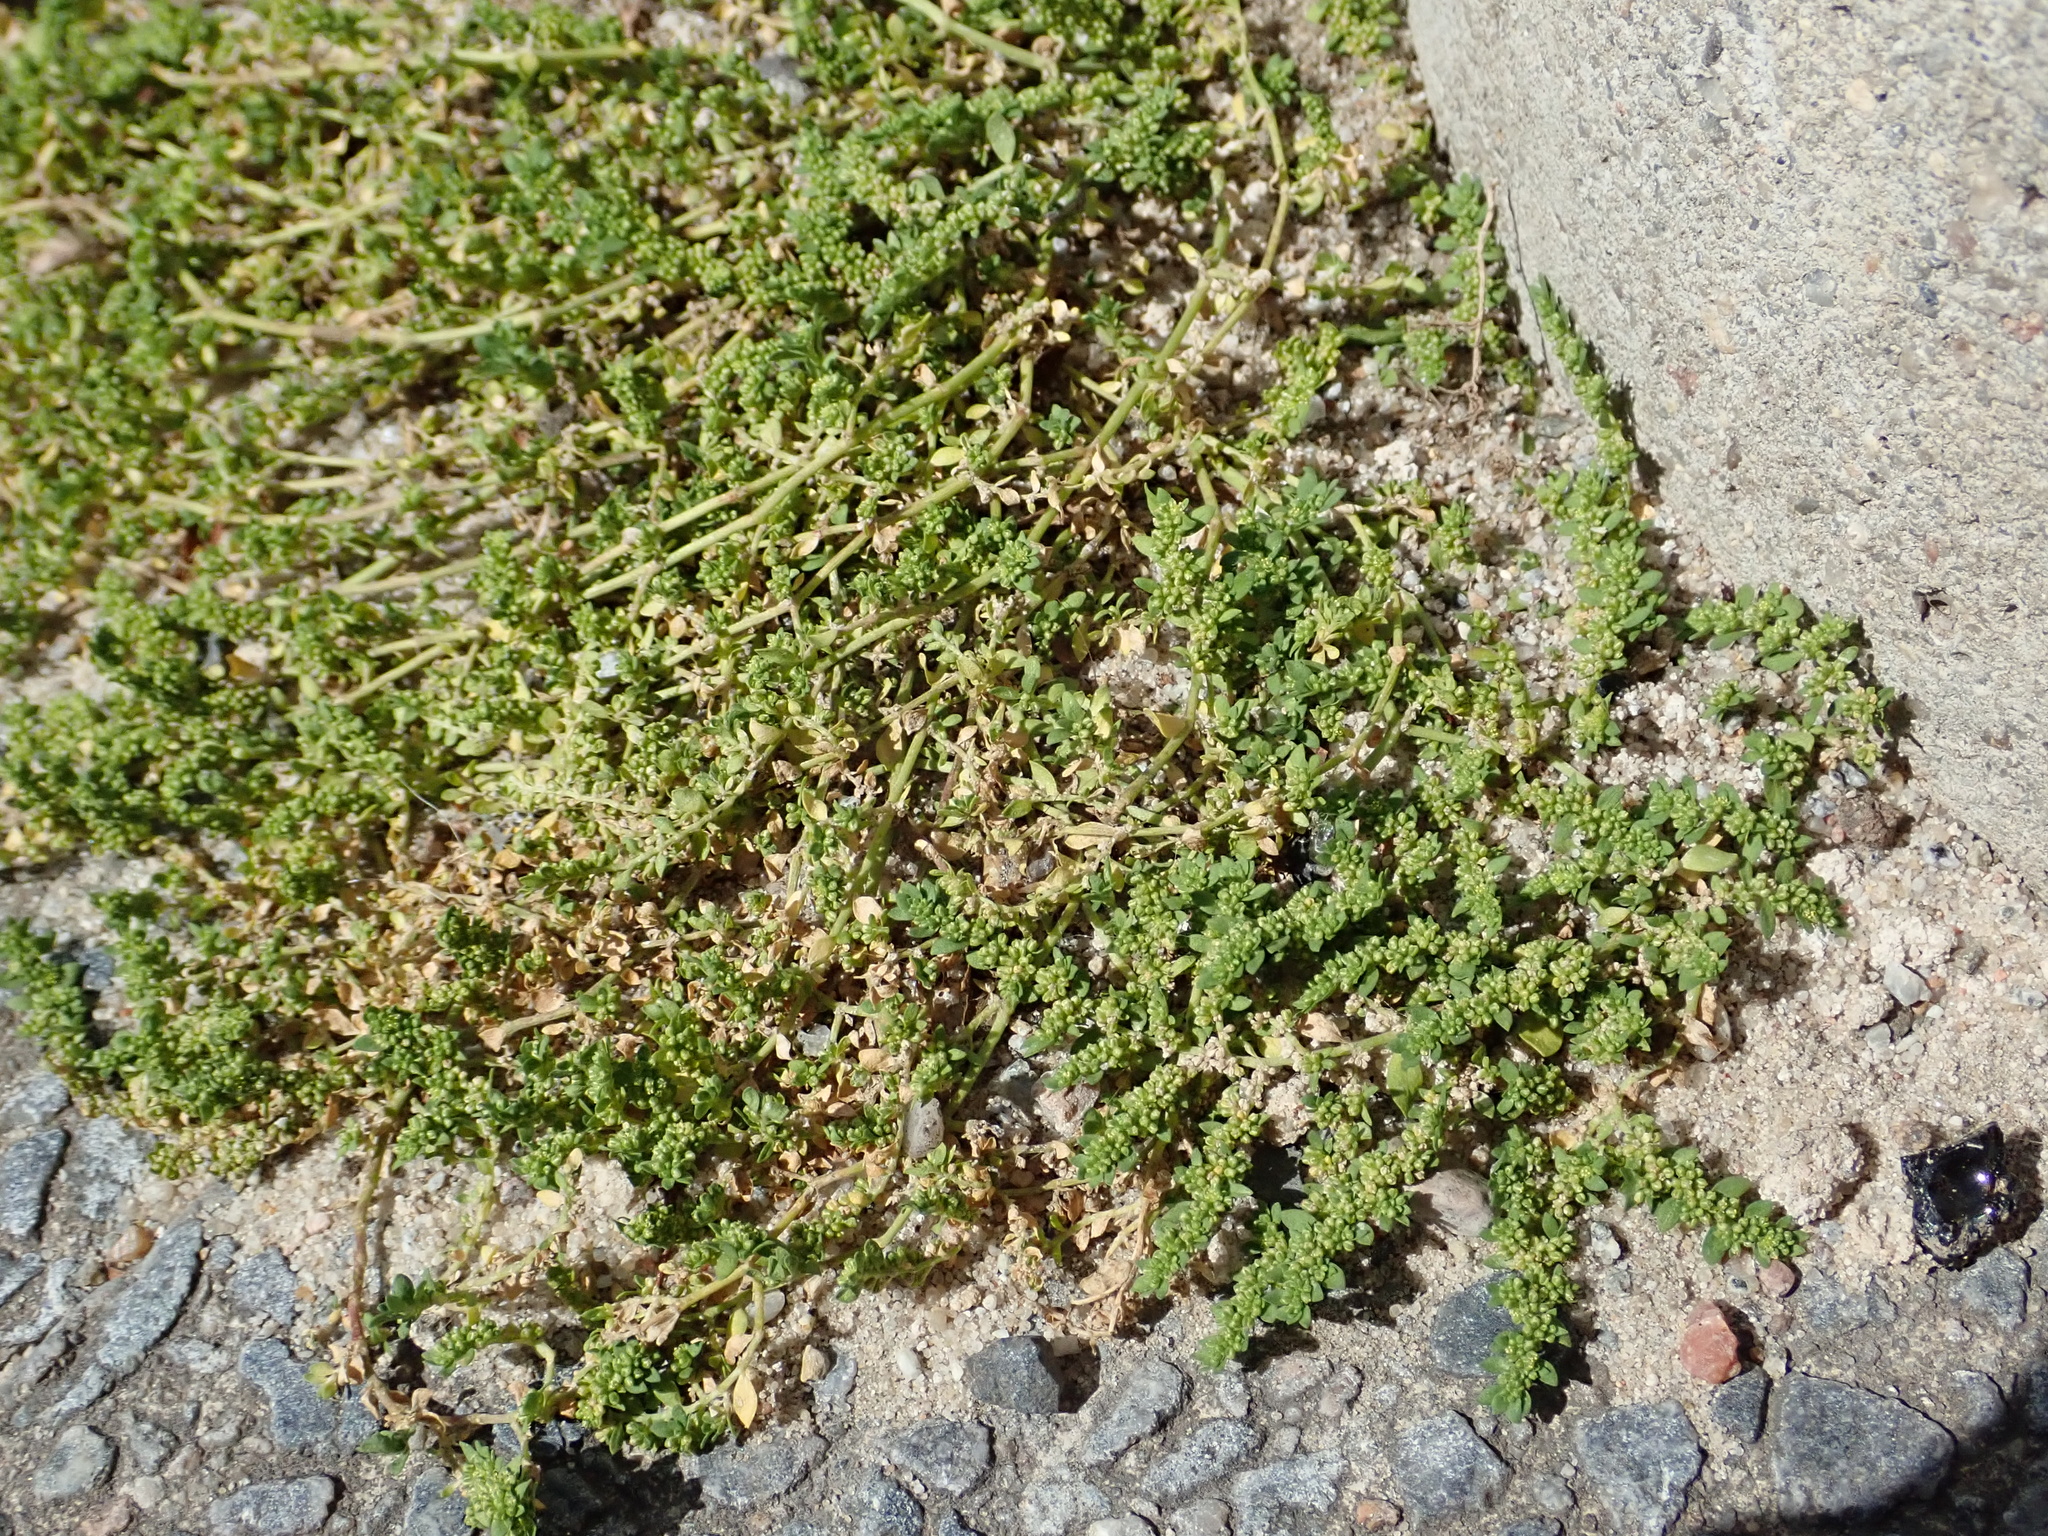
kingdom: Plantae
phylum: Tracheophyta
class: Magnoliopsida
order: Caryophyllales
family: Caryophyllaceae
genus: Herniaria
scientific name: Herniaria glabra
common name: Smooth rupturewort
